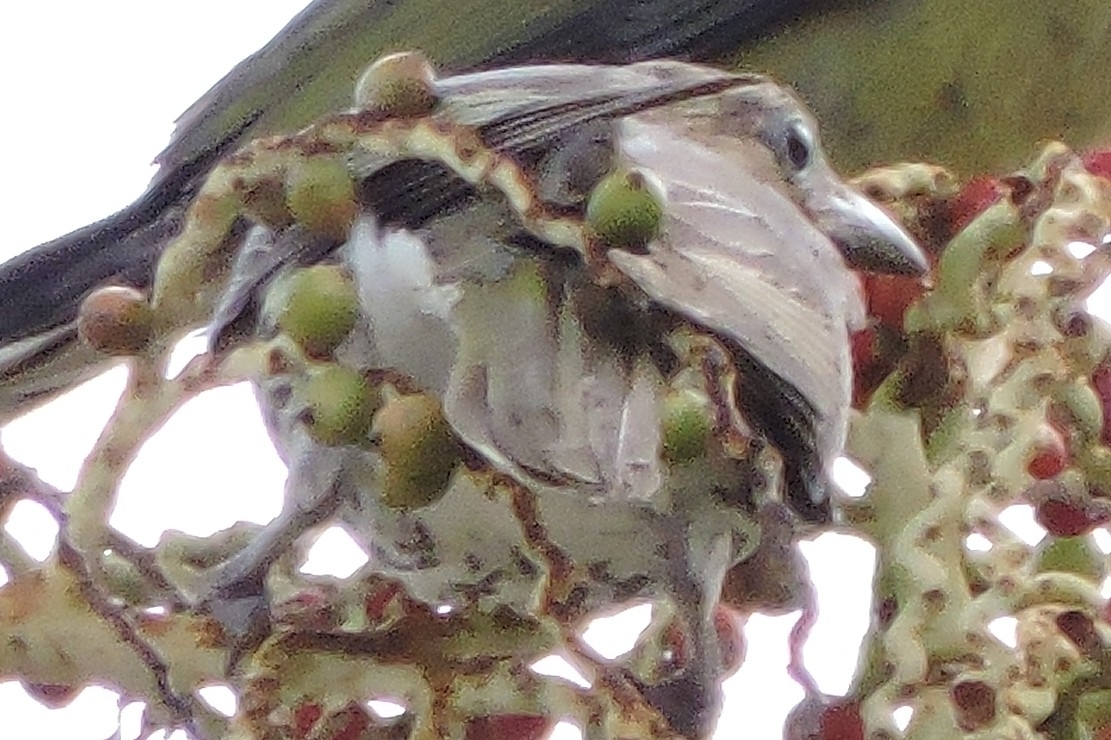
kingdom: Animalia
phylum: Chordata
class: Aves
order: Passeriformes
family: Oriolidae
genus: Sphecotheres
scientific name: Sphecotheres vieilloti
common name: Australasian figbird
